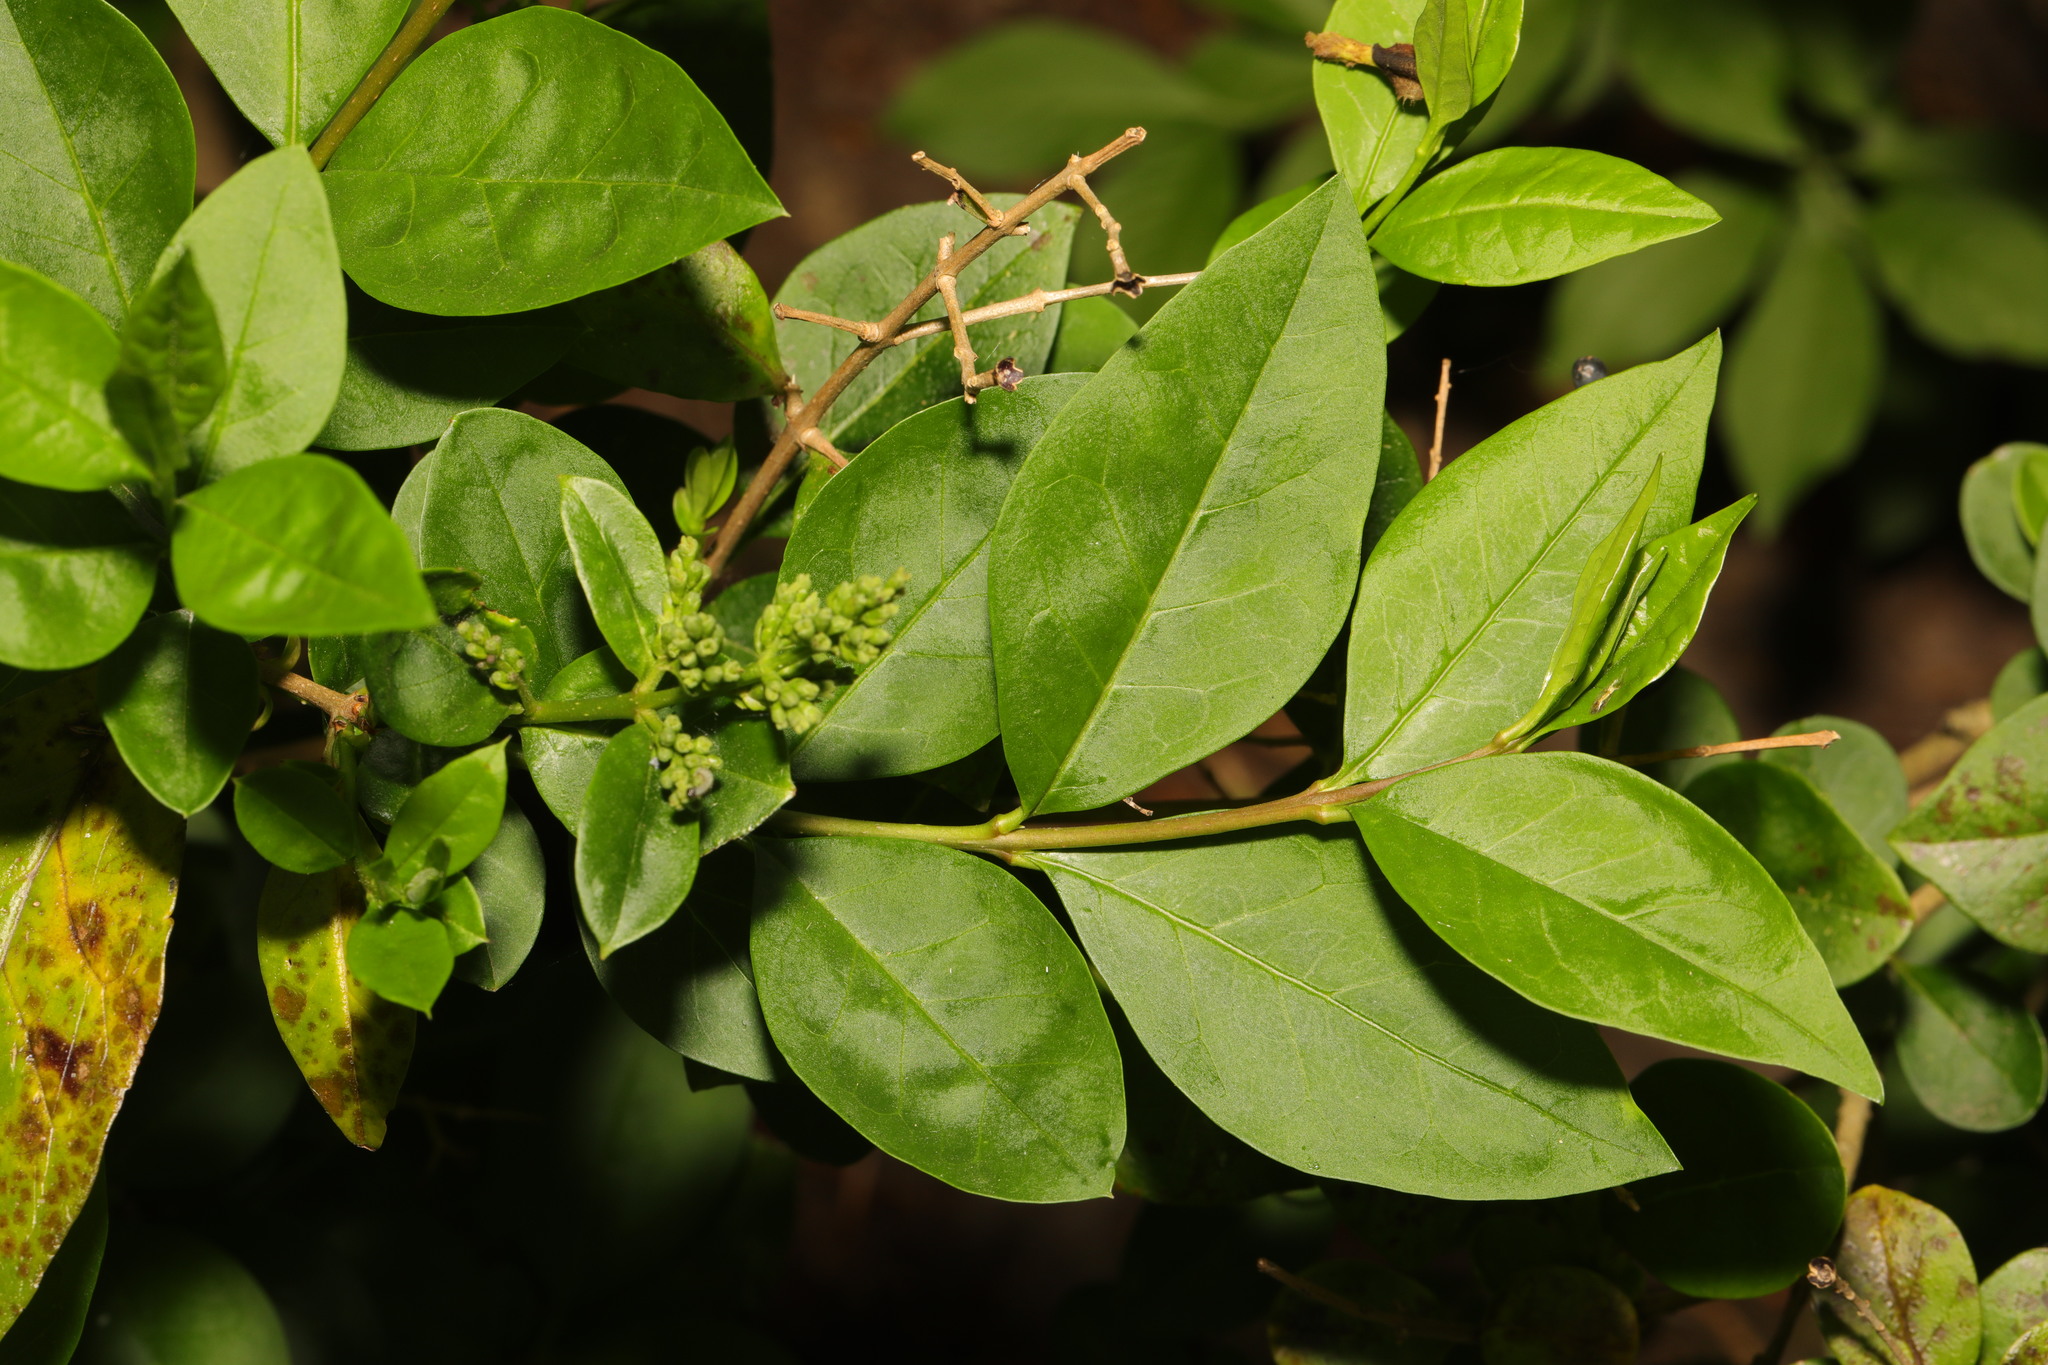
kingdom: Plantae
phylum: Tracheophyta
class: Magnoliopsida
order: Lamiales
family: Oleaceae
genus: Ligustrum
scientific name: Ligustrum ovalifolium
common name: California privet
